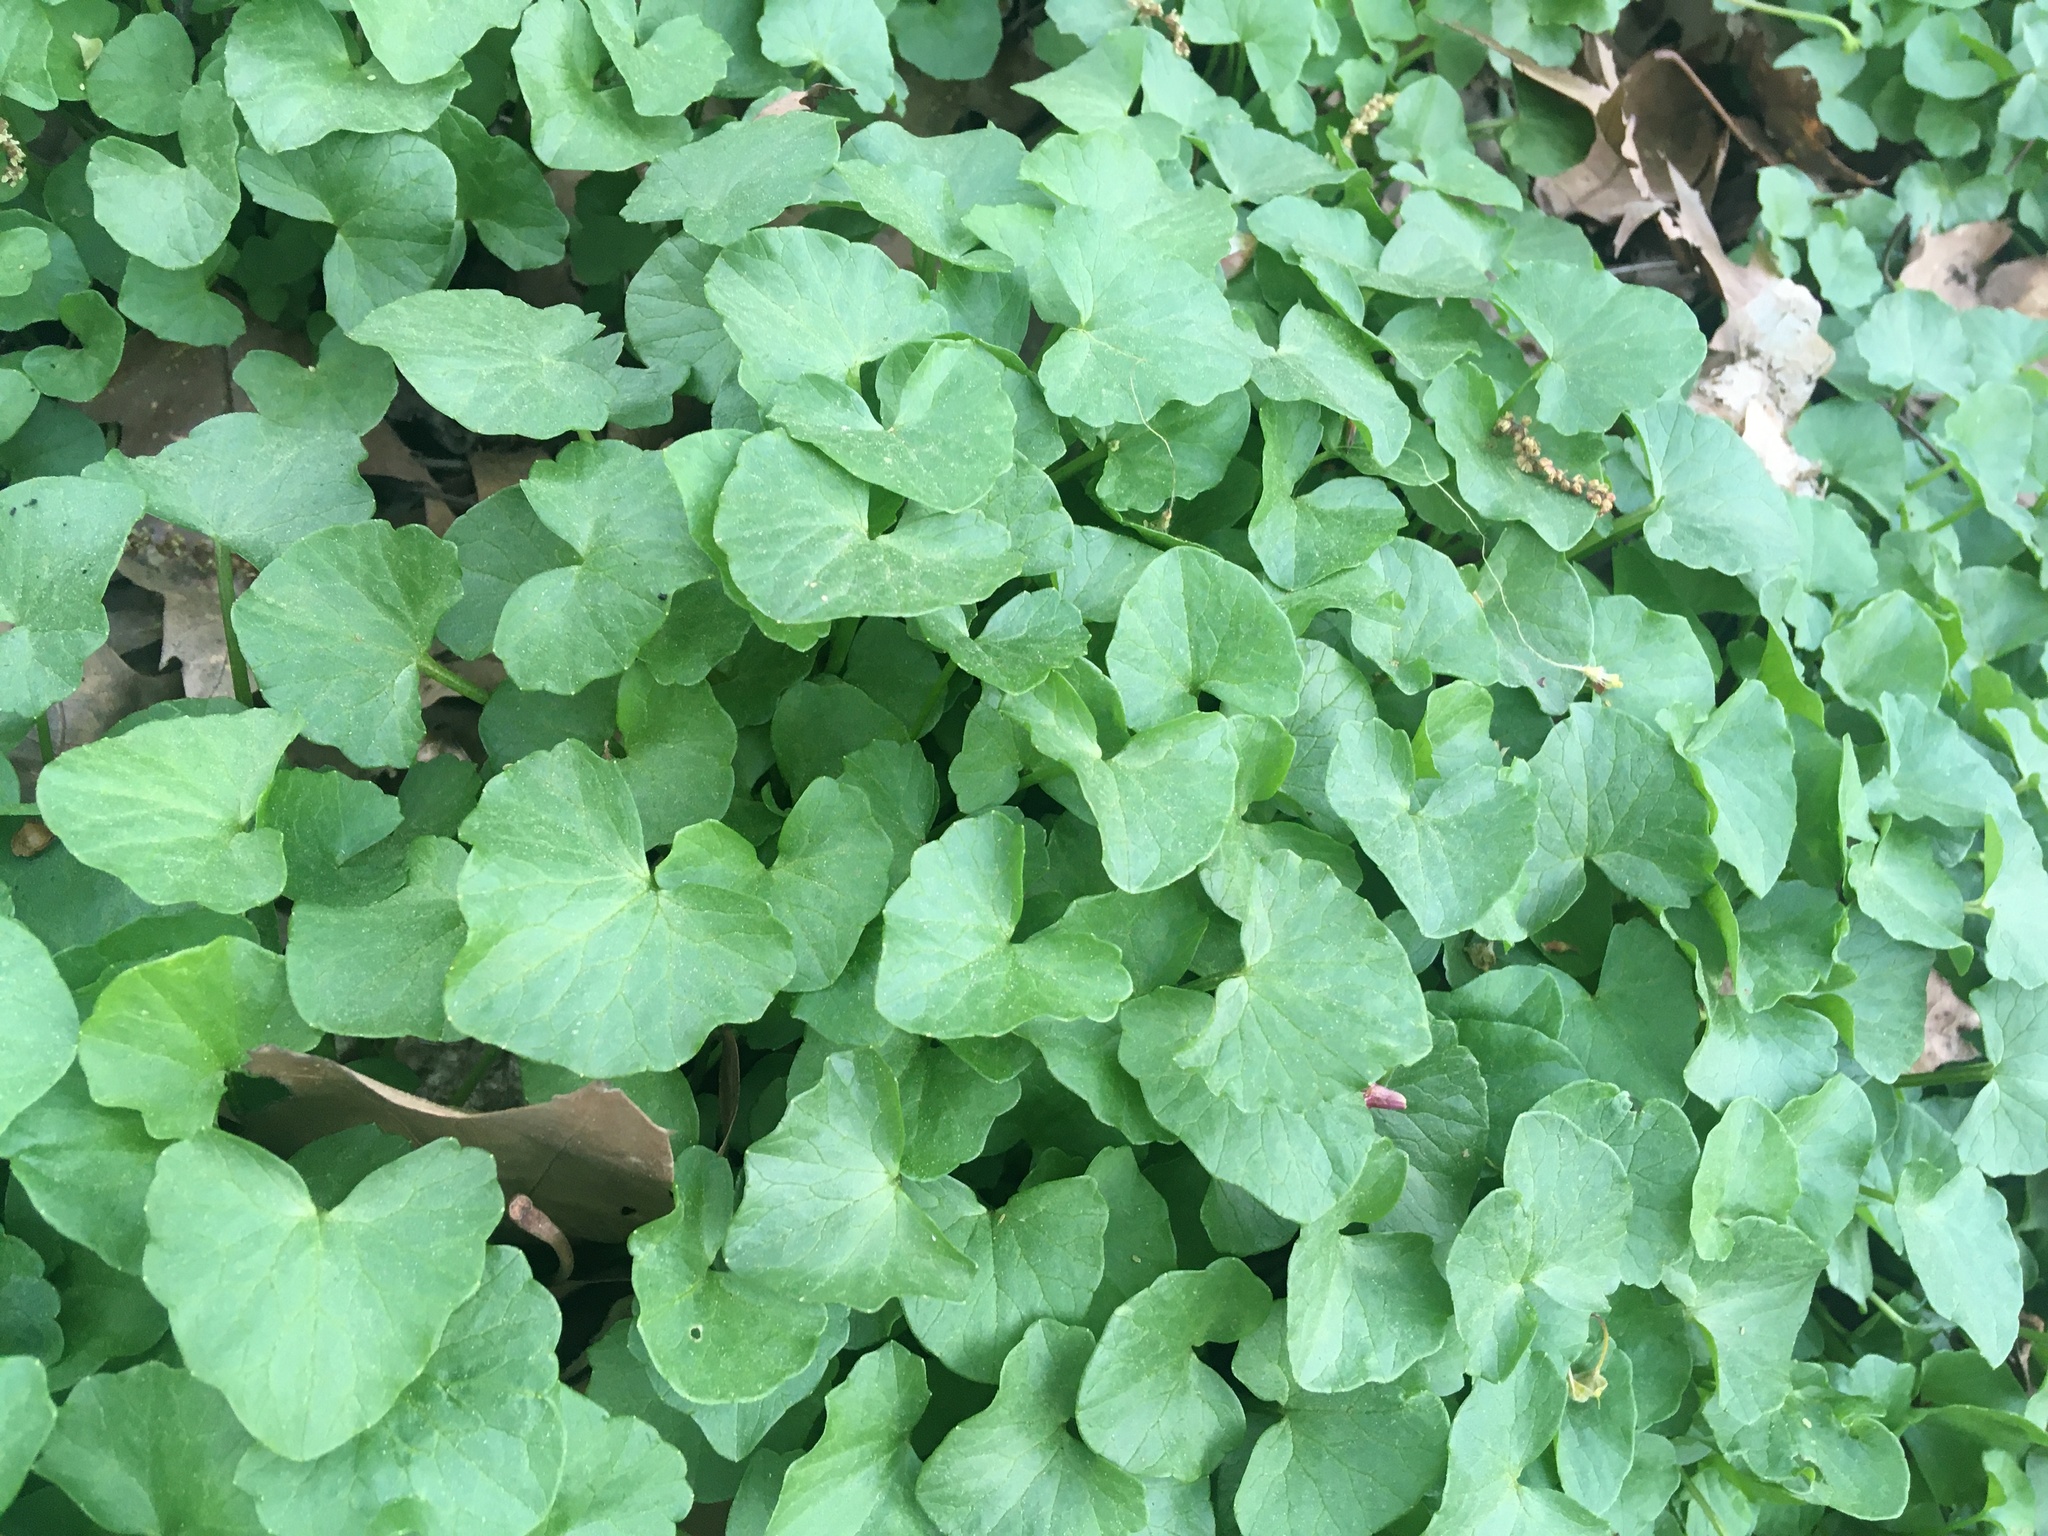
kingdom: Plantae
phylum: Tracheophyta
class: Magnoliopsida
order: Ranunculales
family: Ranunculaceae
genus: Ficaria
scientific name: Ficaria verna
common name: Lesser celandine
